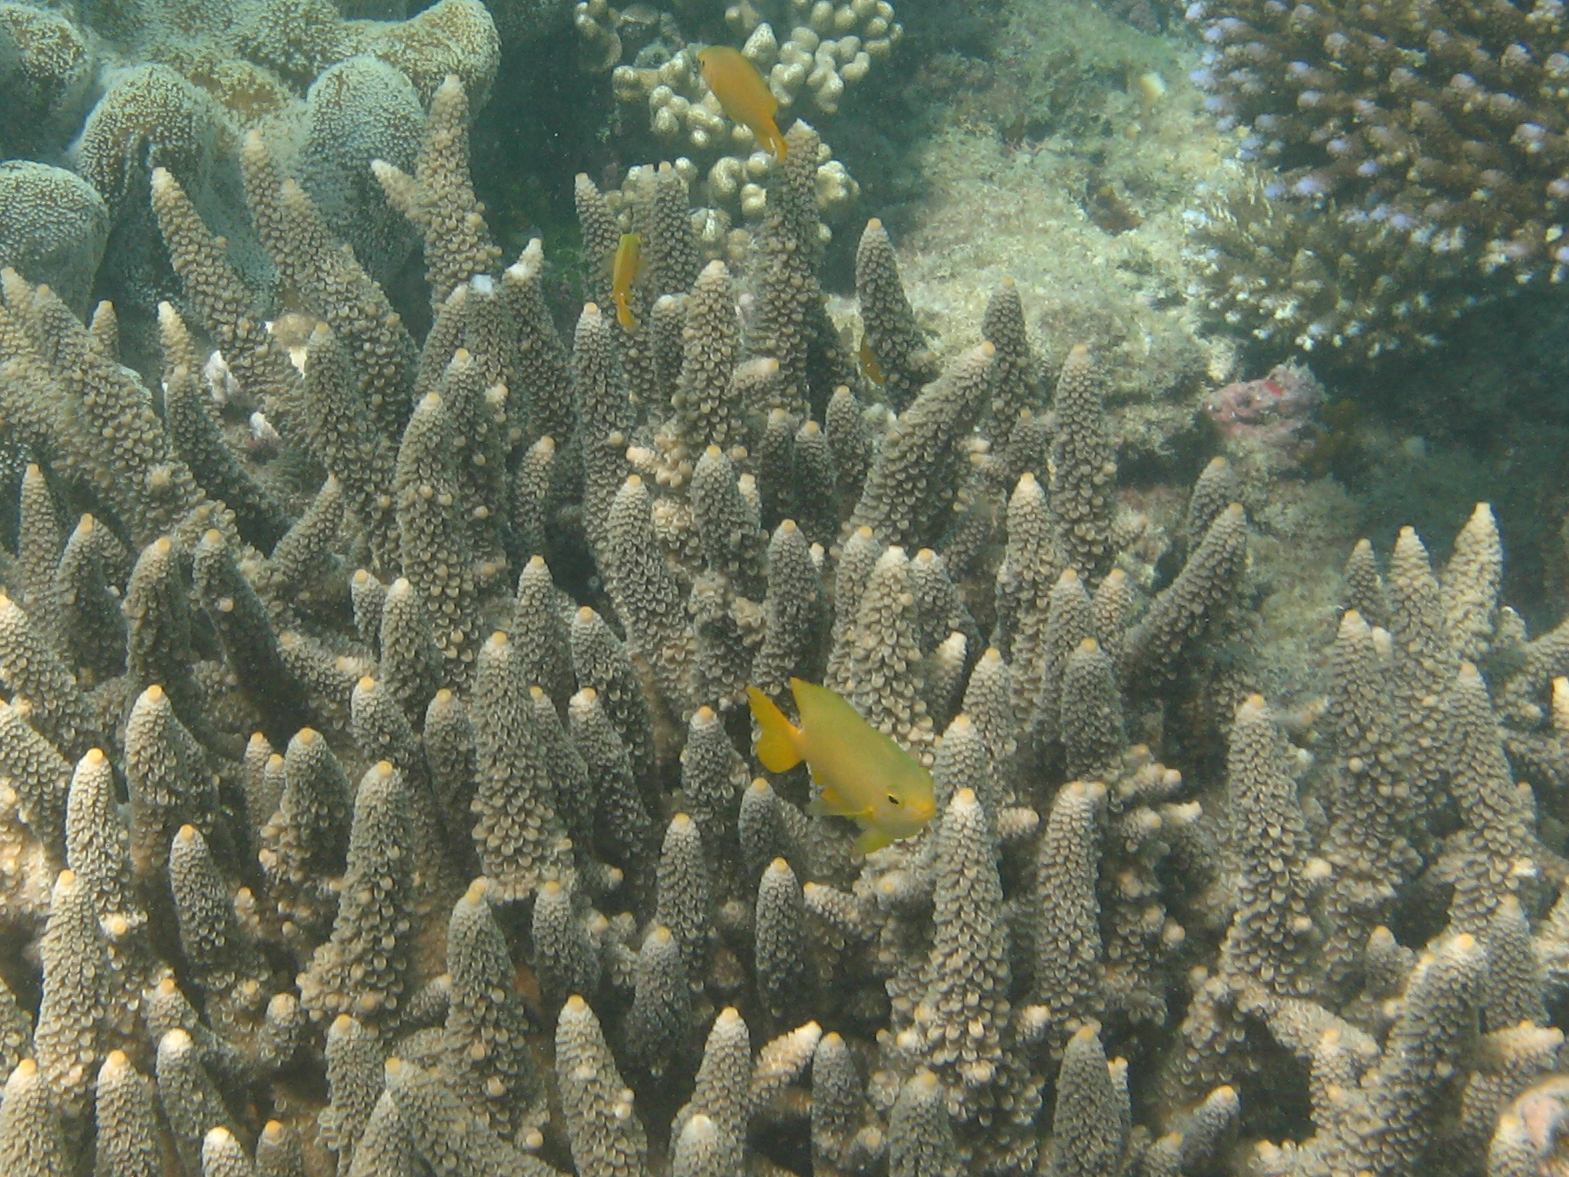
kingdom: Animalia
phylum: Chordata
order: Perciformes
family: Pomacentridae
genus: Pomacentrus
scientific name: Pomacentrus moluccensis
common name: Lemon damsel
